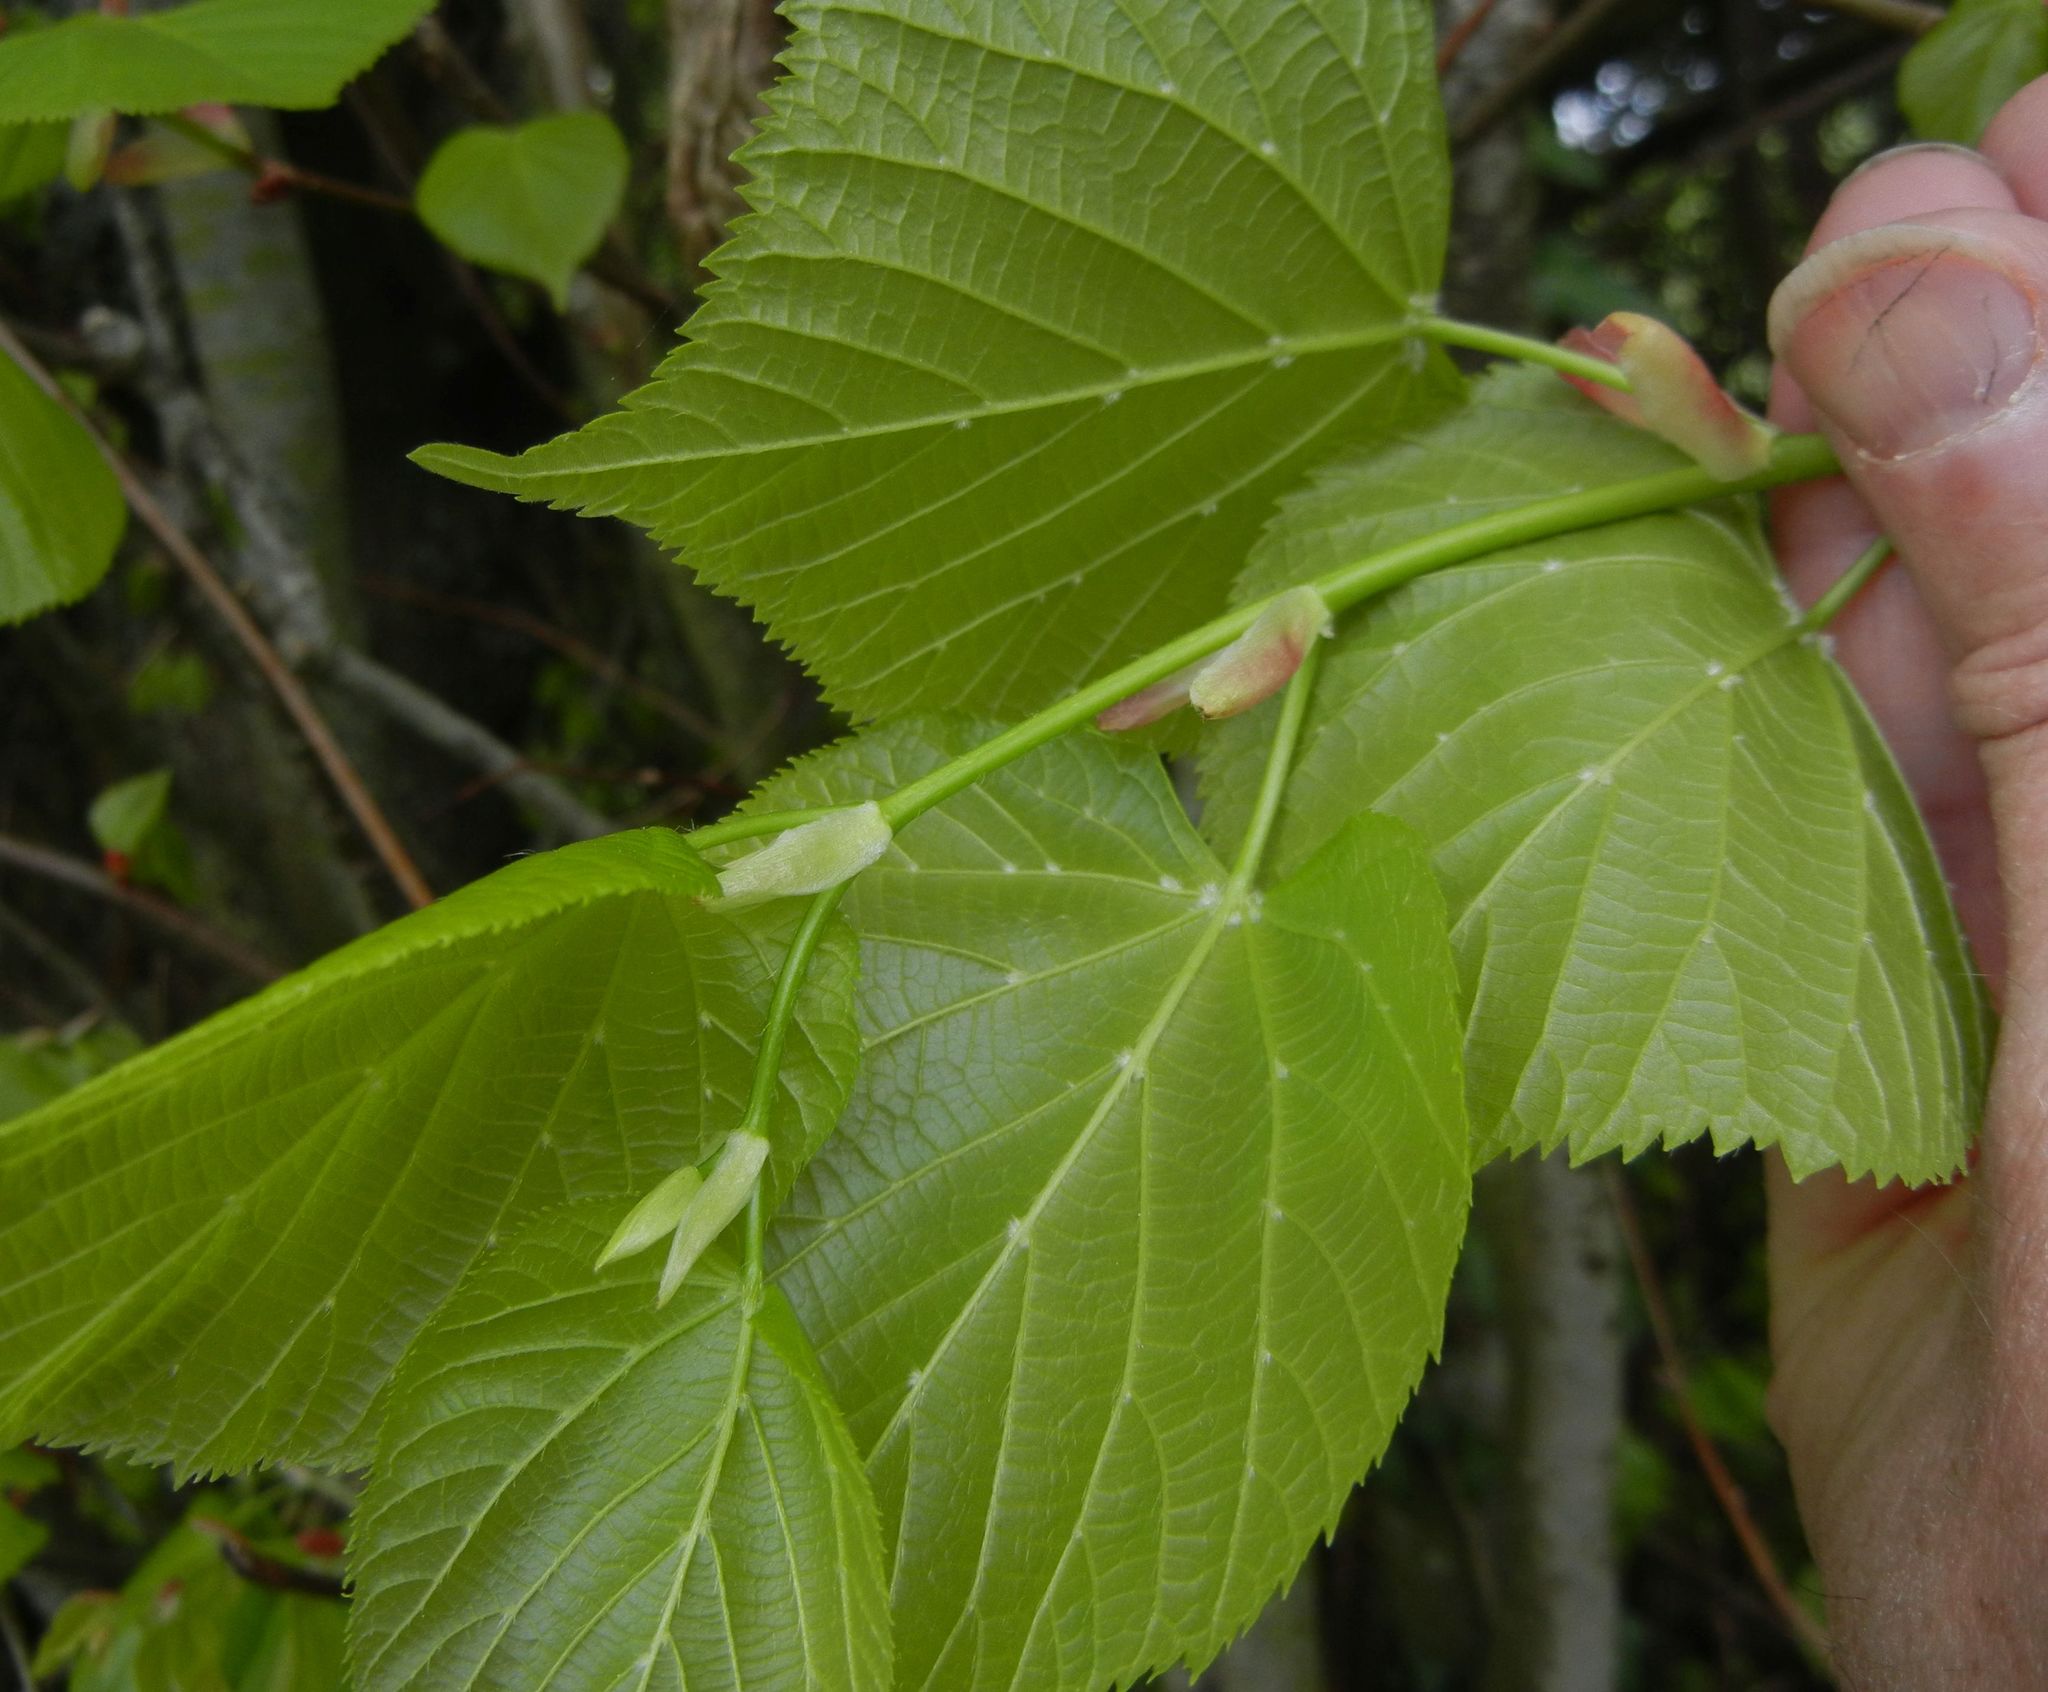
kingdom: Plantae
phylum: Tracheophyta
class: Magnoliopsida
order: Malvales
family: Malvaceae
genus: Tilia
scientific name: Tilia europaea
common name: European linden
